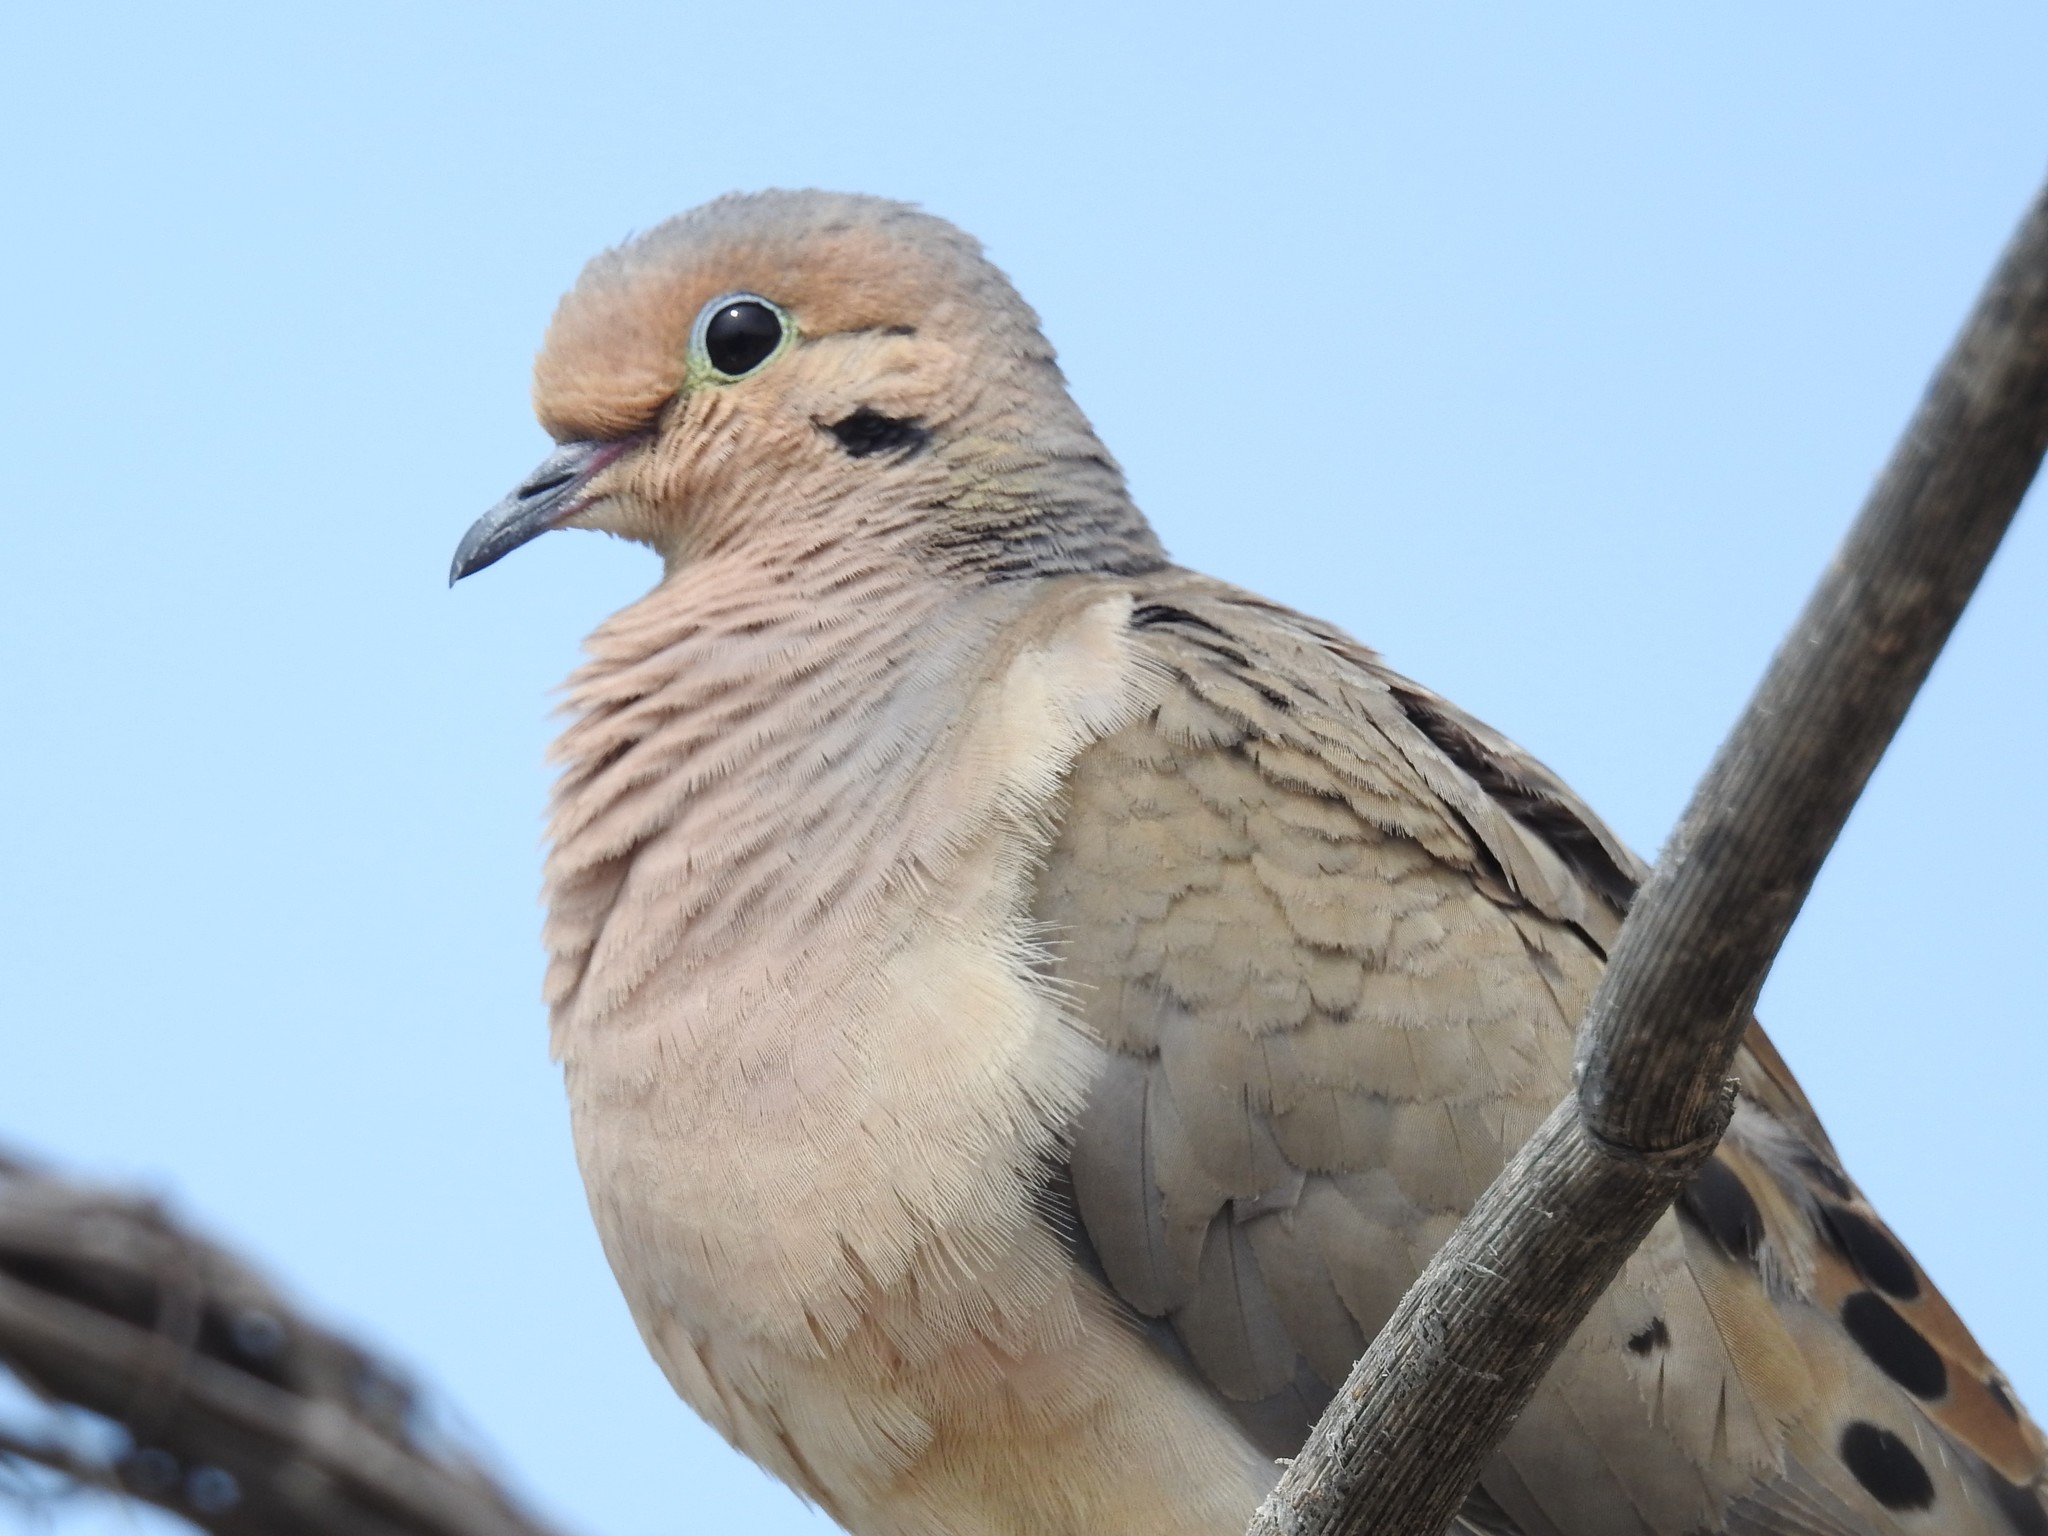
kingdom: Animalia
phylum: Chordata
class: Aves
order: Columbiformes
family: Columbidae
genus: Zenaida
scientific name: Zenaida macroura
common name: Mourning dove
